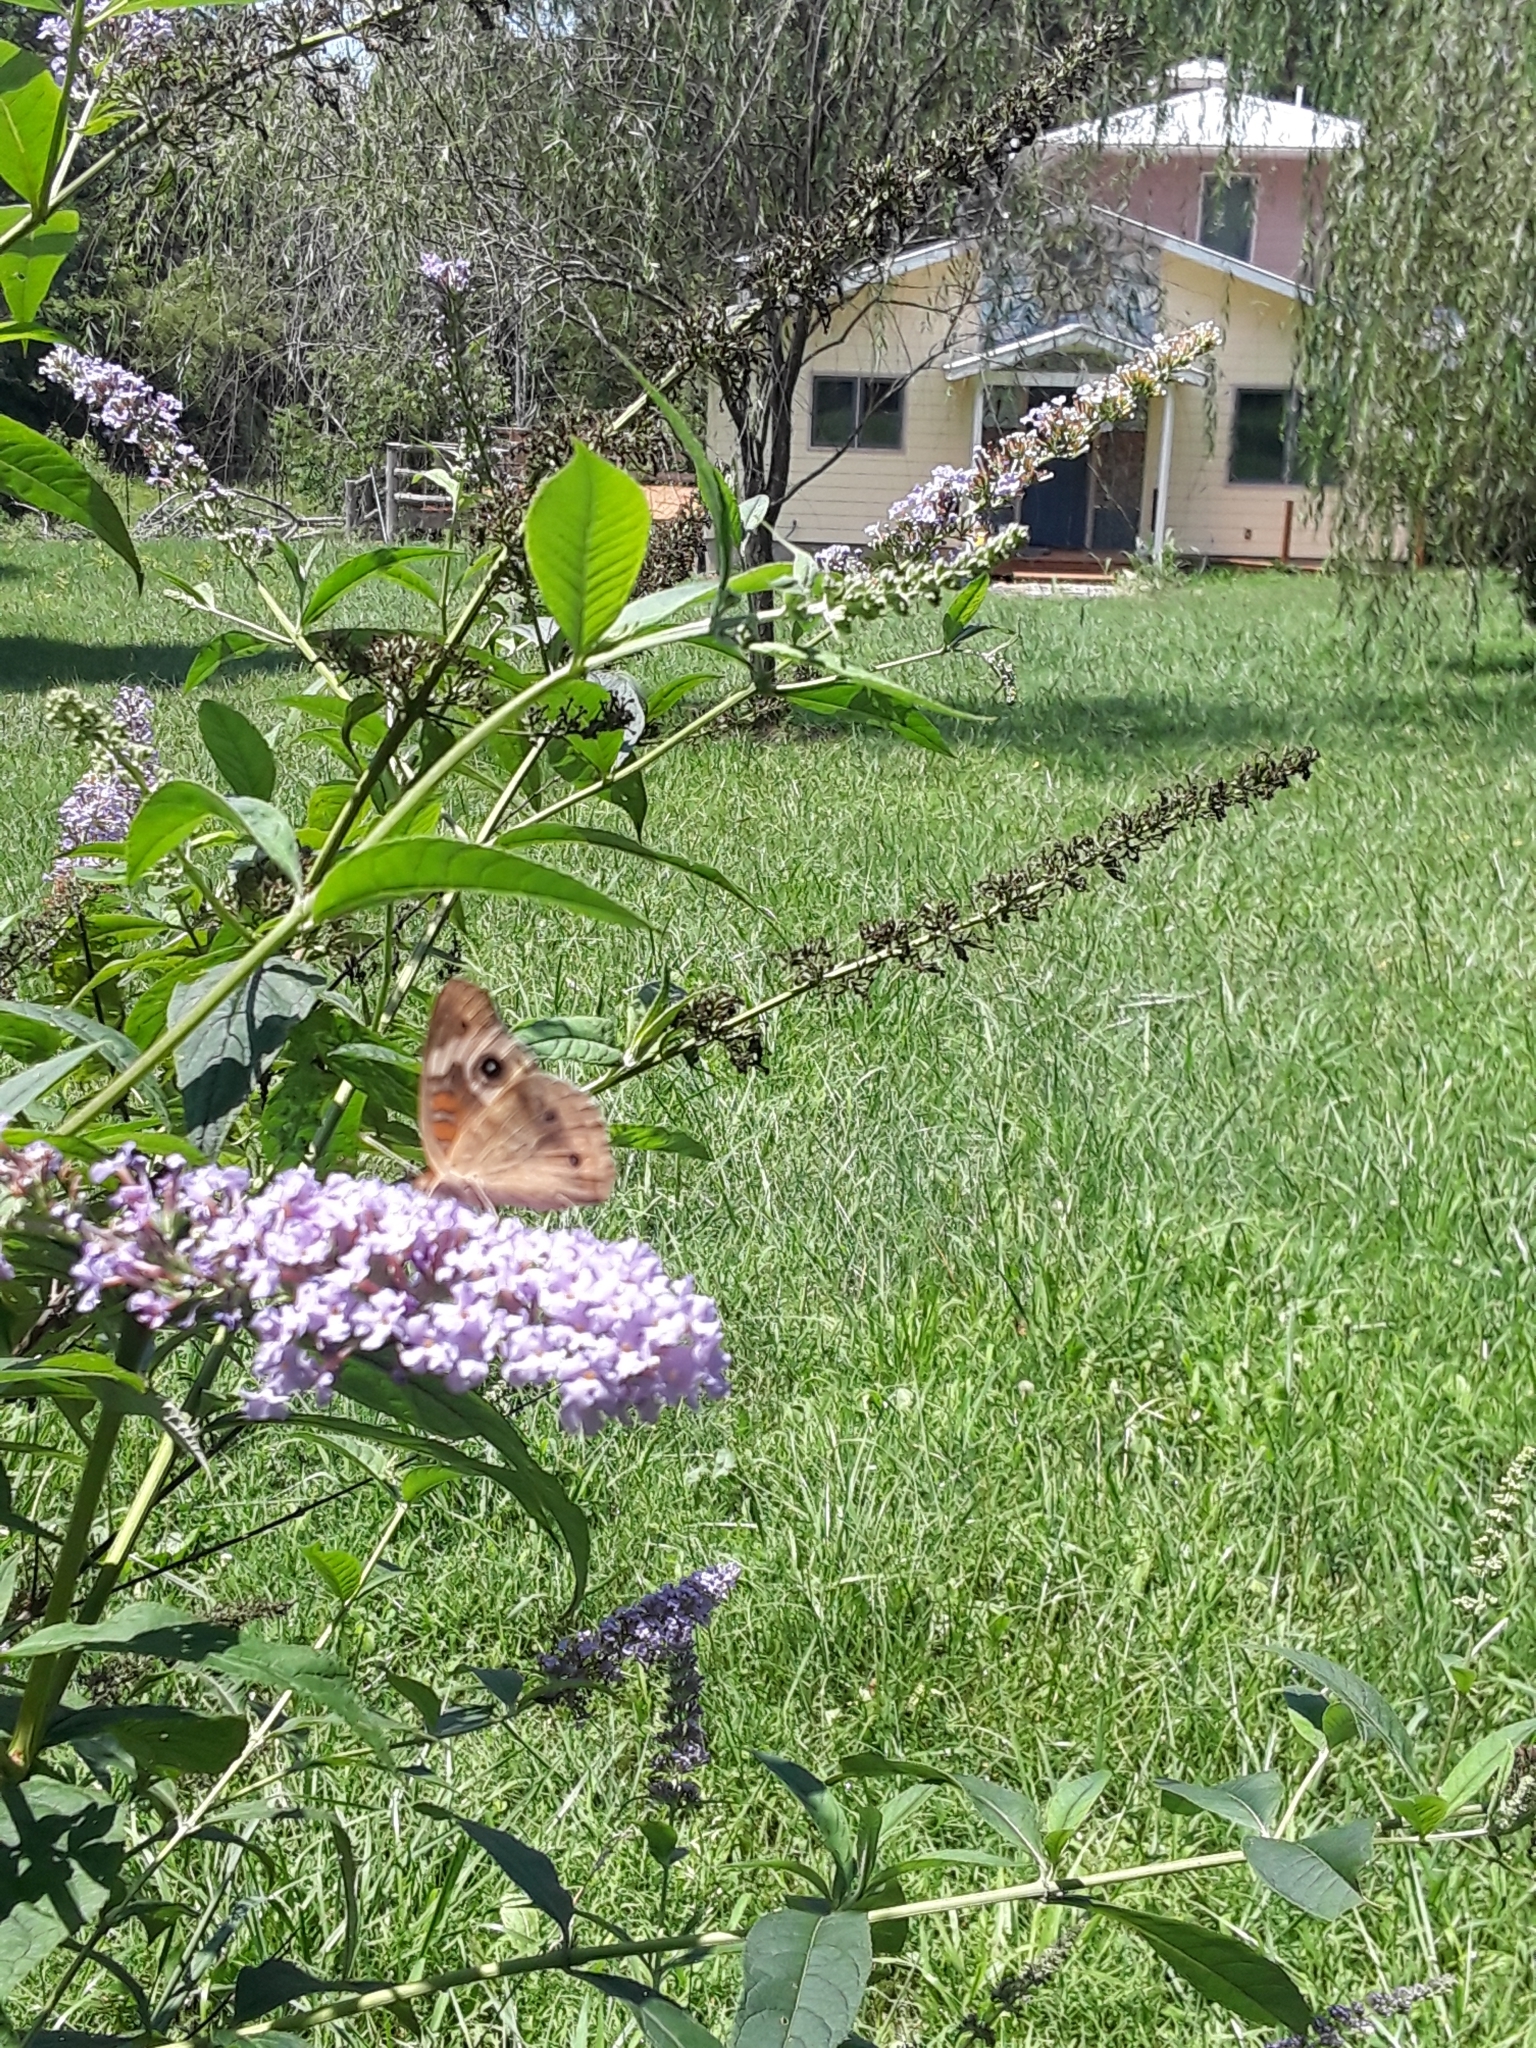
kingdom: Plantae
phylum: Tracheophyta
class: Magnoliopsida
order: Lamiales
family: Scrophulariaceae
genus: Buddleja
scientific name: Buddleja davidii
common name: Butterfly-bush
